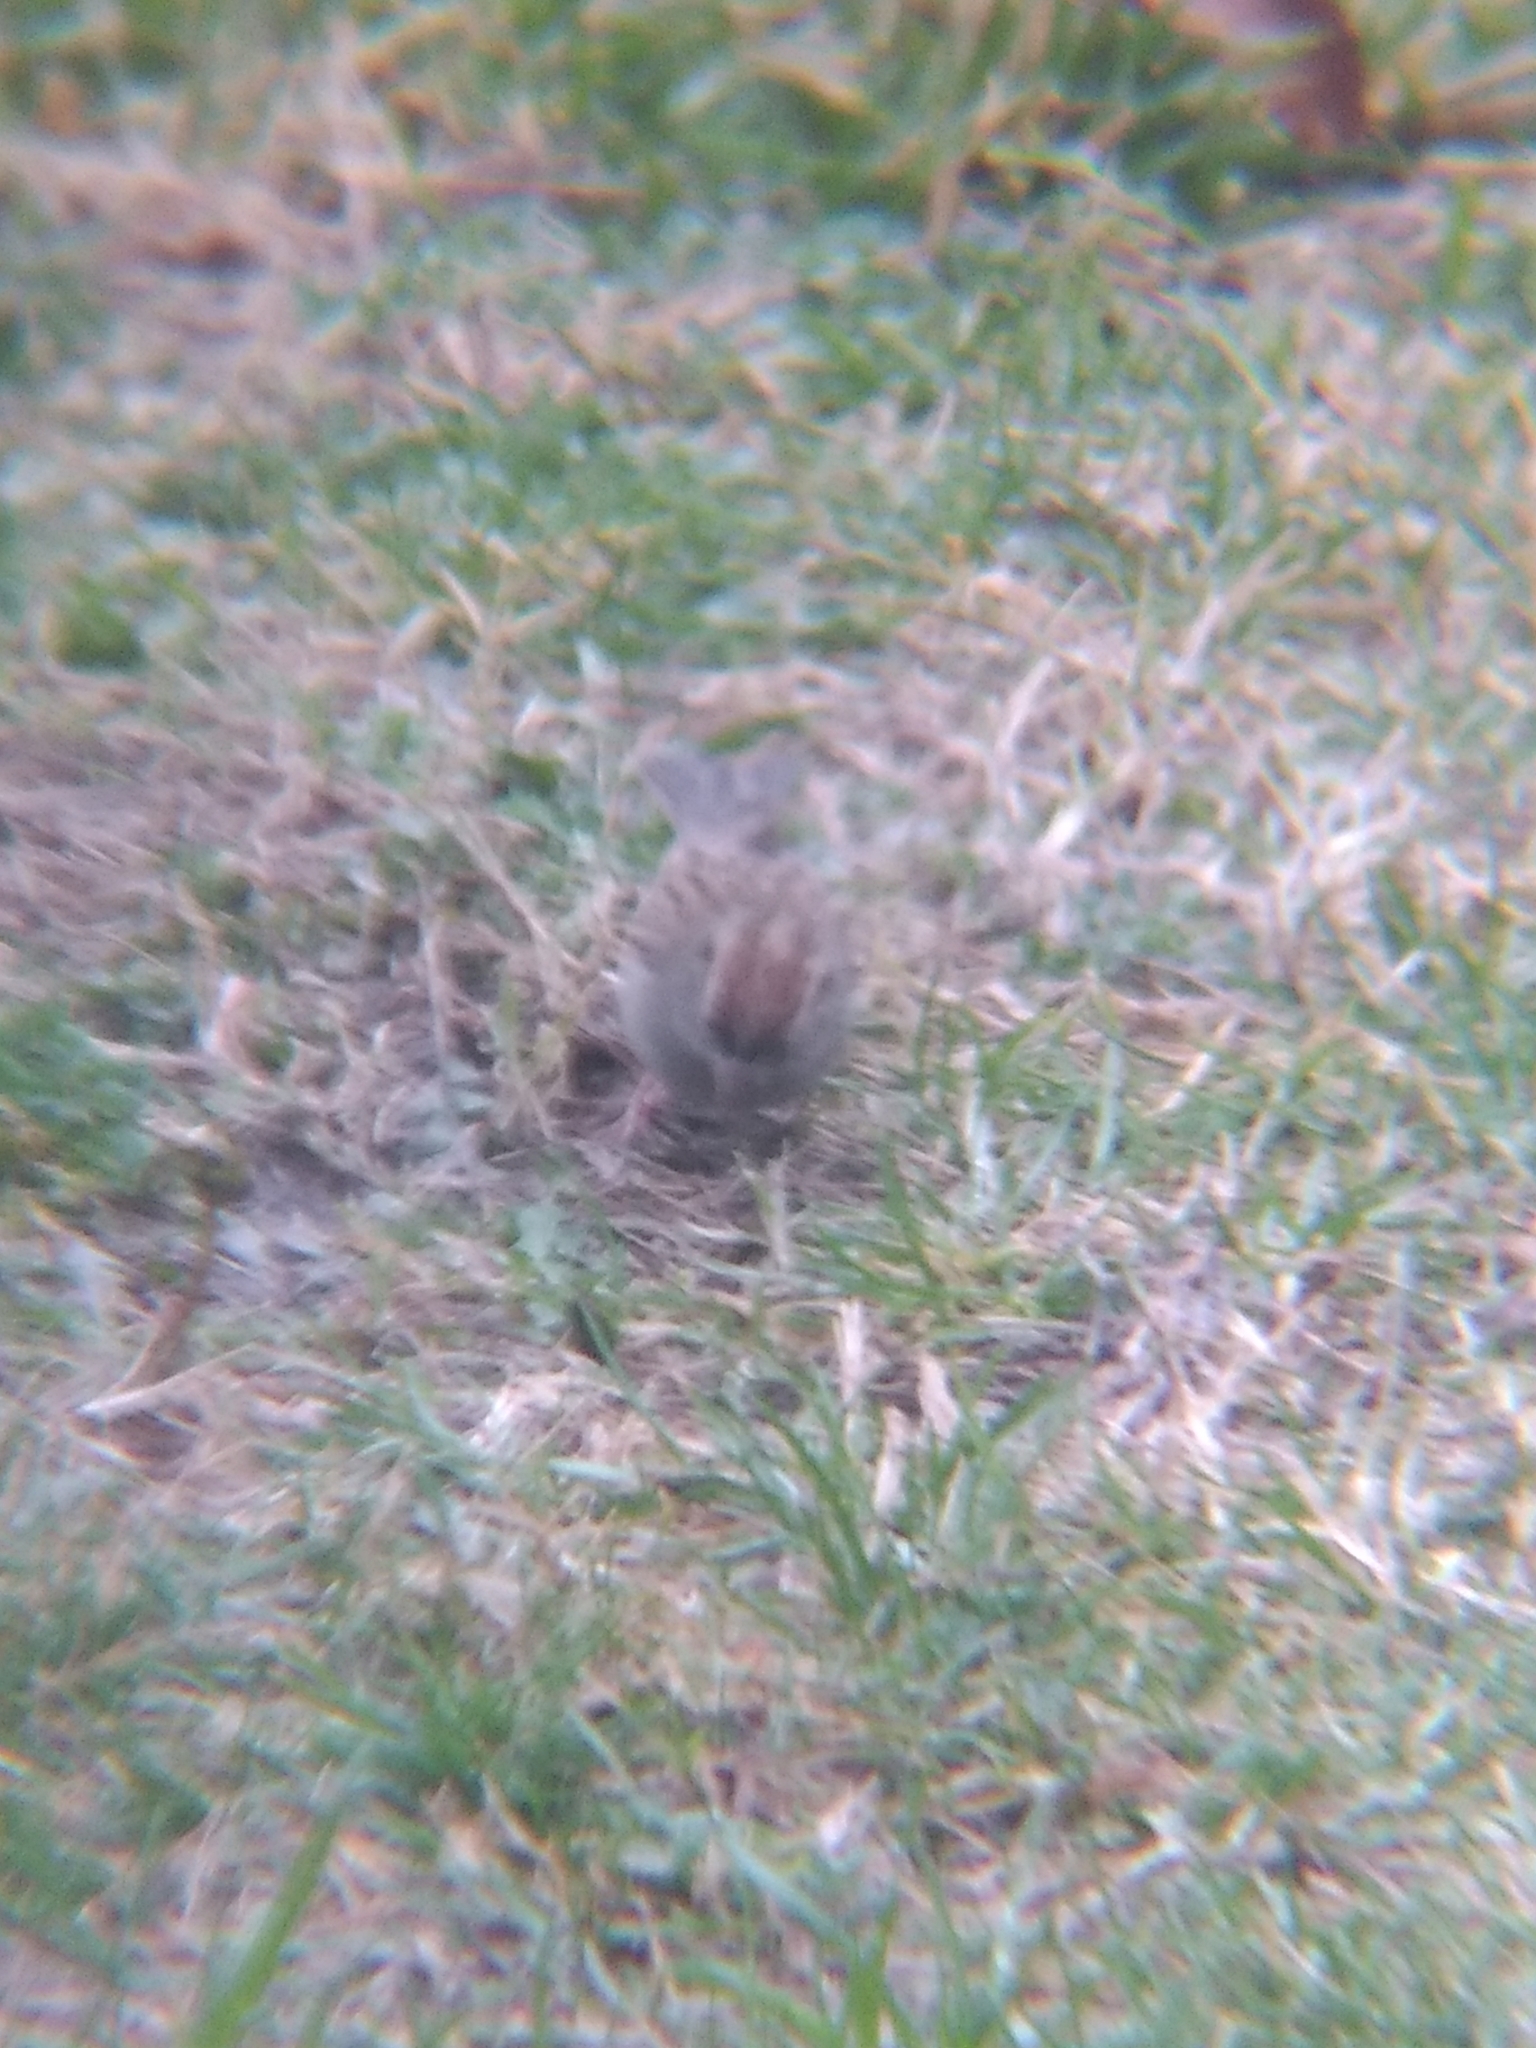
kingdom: Animalia
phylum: Chordata
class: Aves
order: Passeriformes
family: Passerellidae
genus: Spizella
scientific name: Spizella passerina
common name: Chipping sparrow
